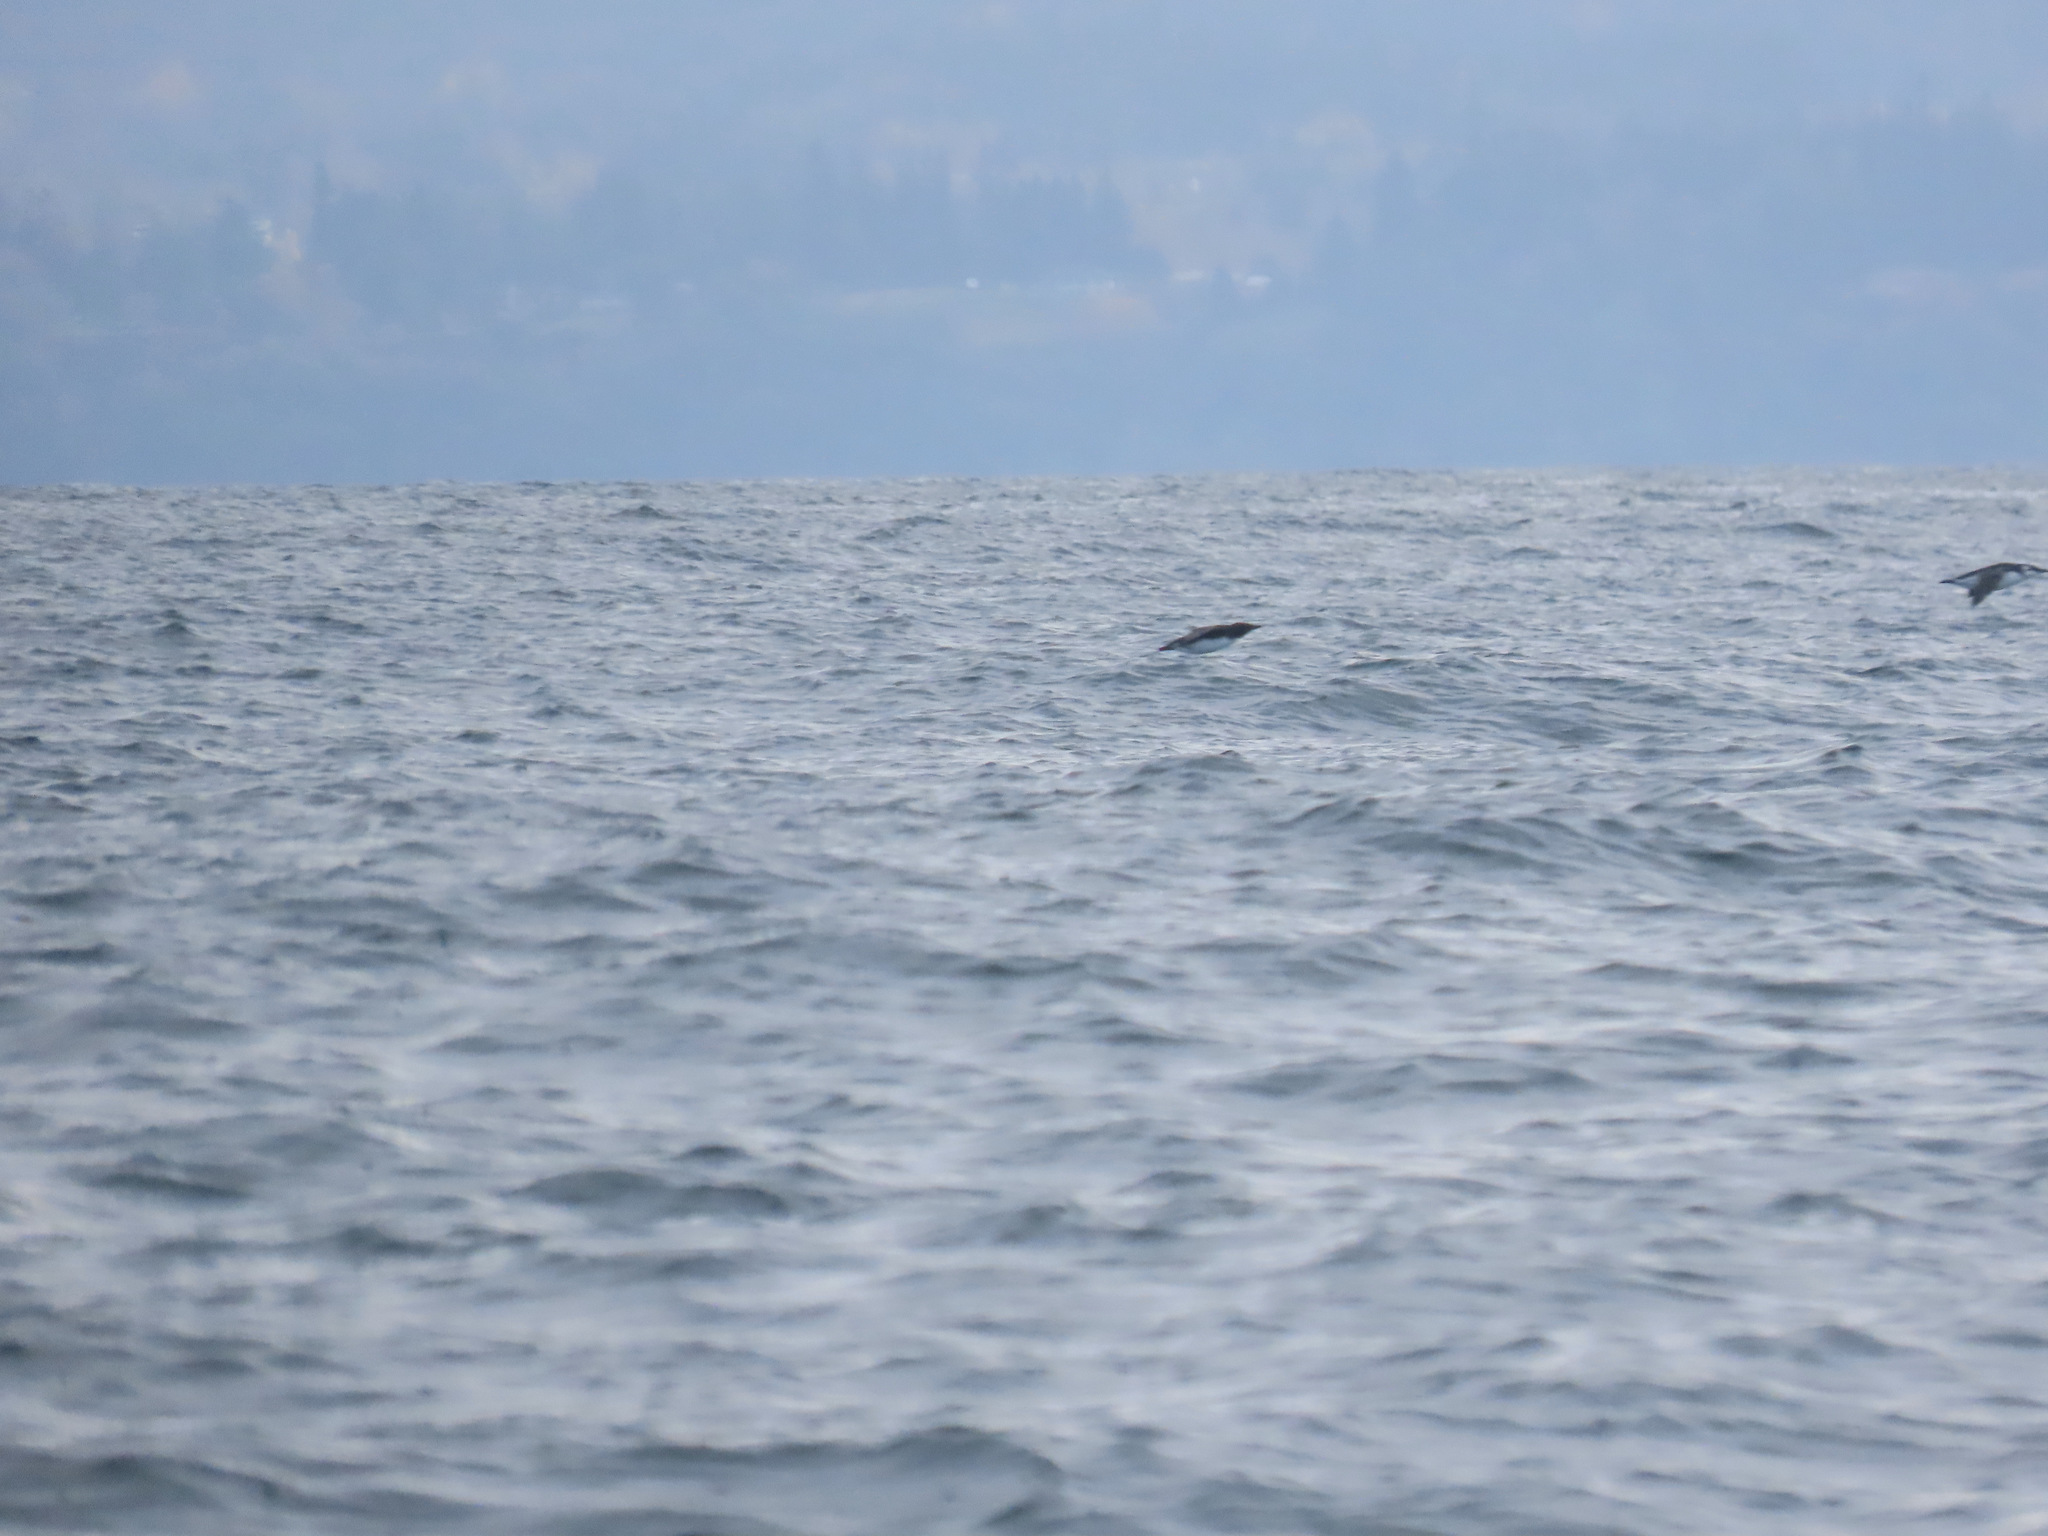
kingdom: Animalia
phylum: Chordata
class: Aves
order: Charadriiformes
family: Alcidae
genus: Uria
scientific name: Uria aalge
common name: Common murre
